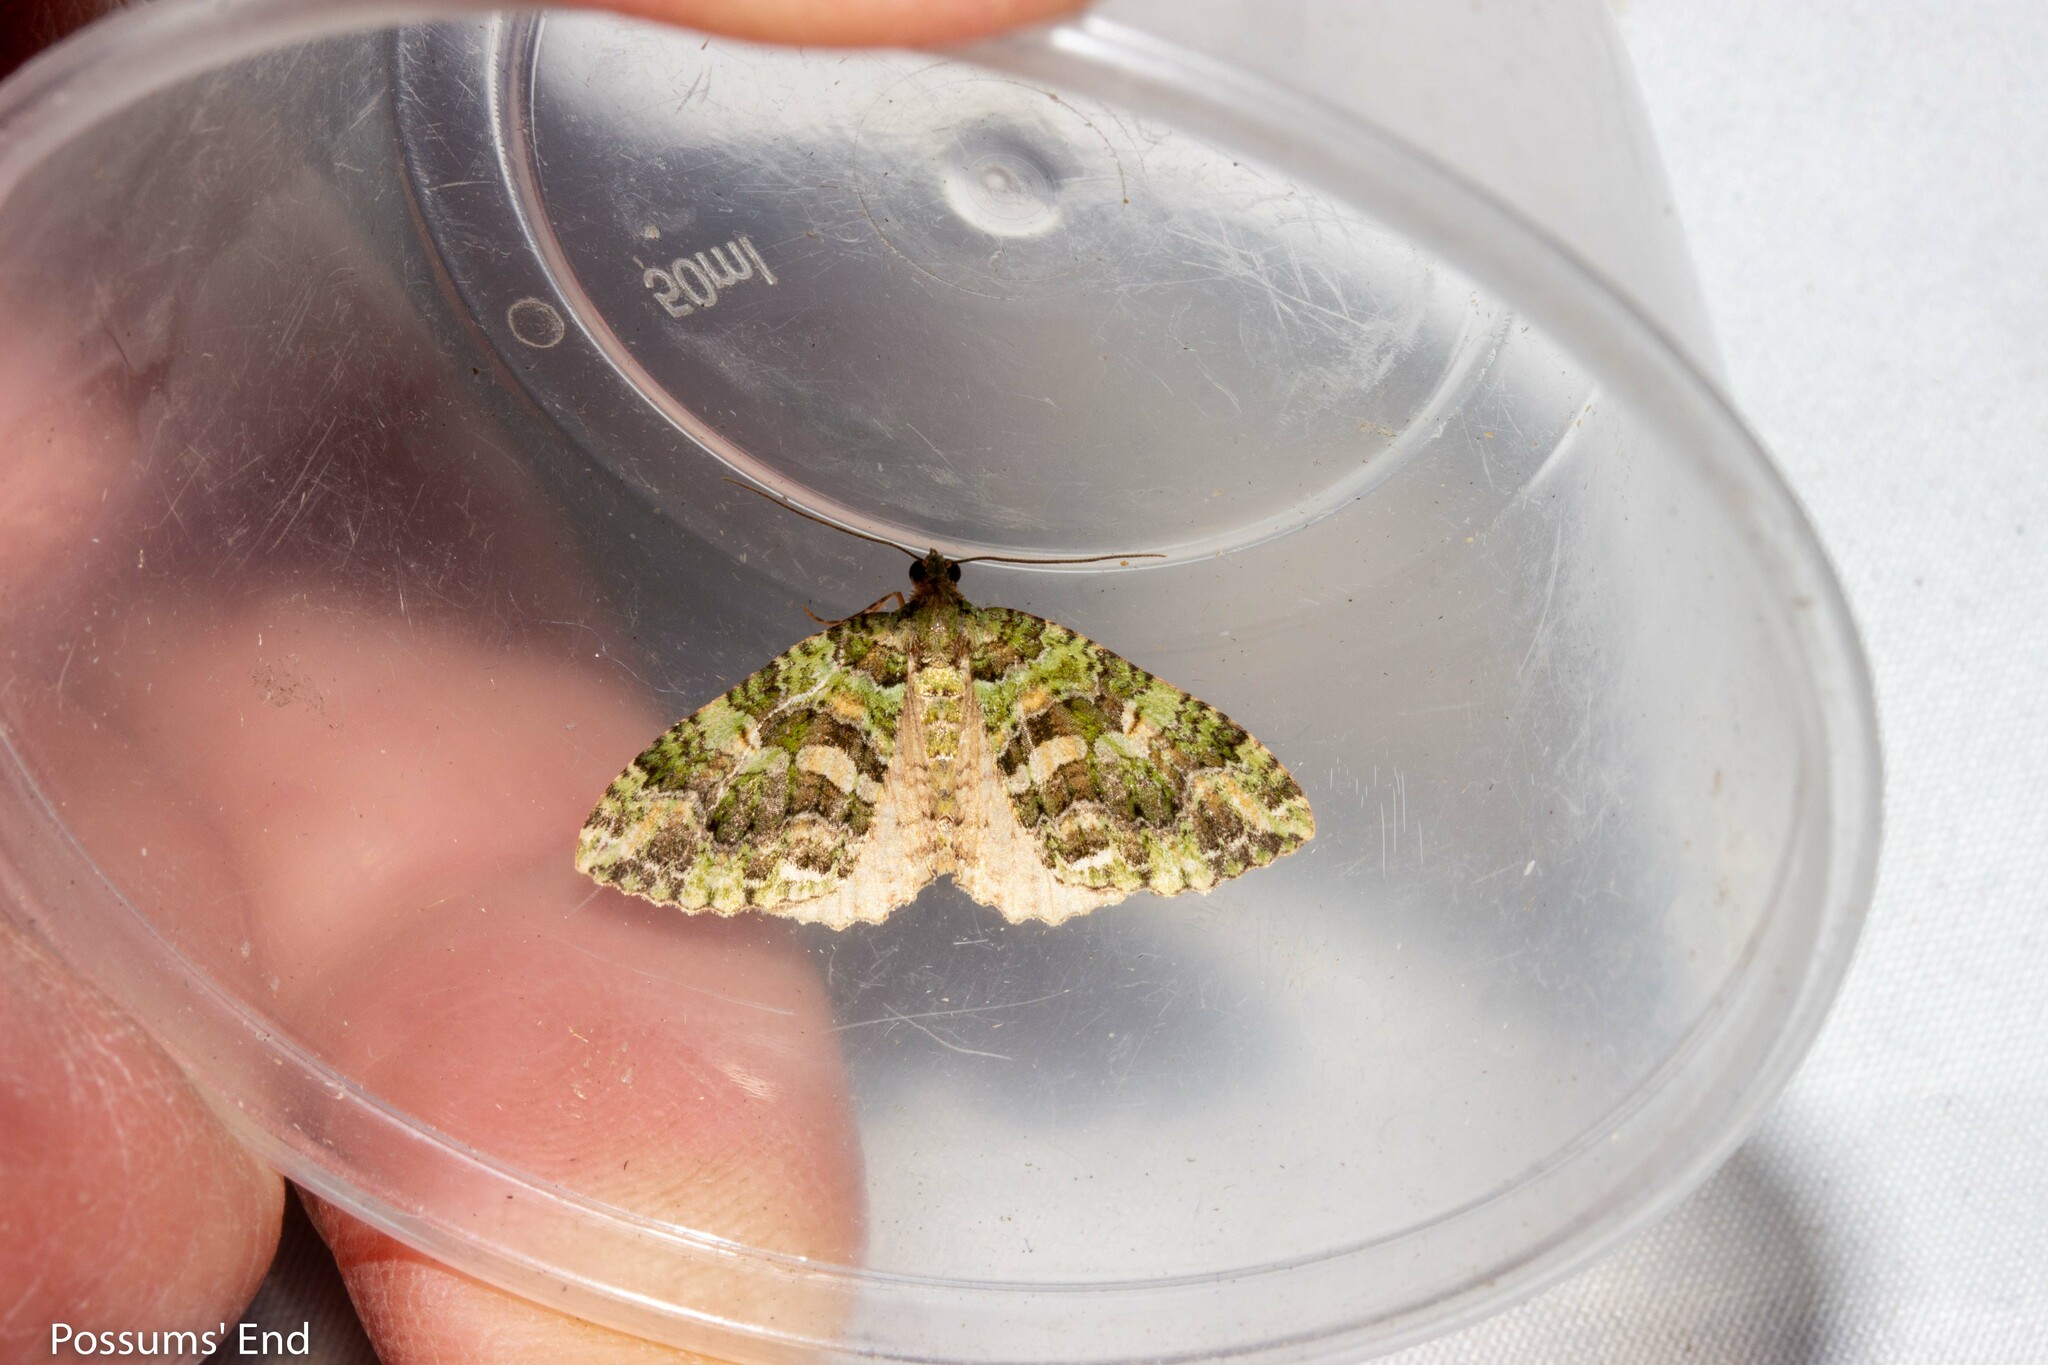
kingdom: Animalia
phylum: Arthropoda
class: Insecta
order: Lepidoptera
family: Geometridae
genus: Austrocidaria
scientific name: Austrocidaria similata
